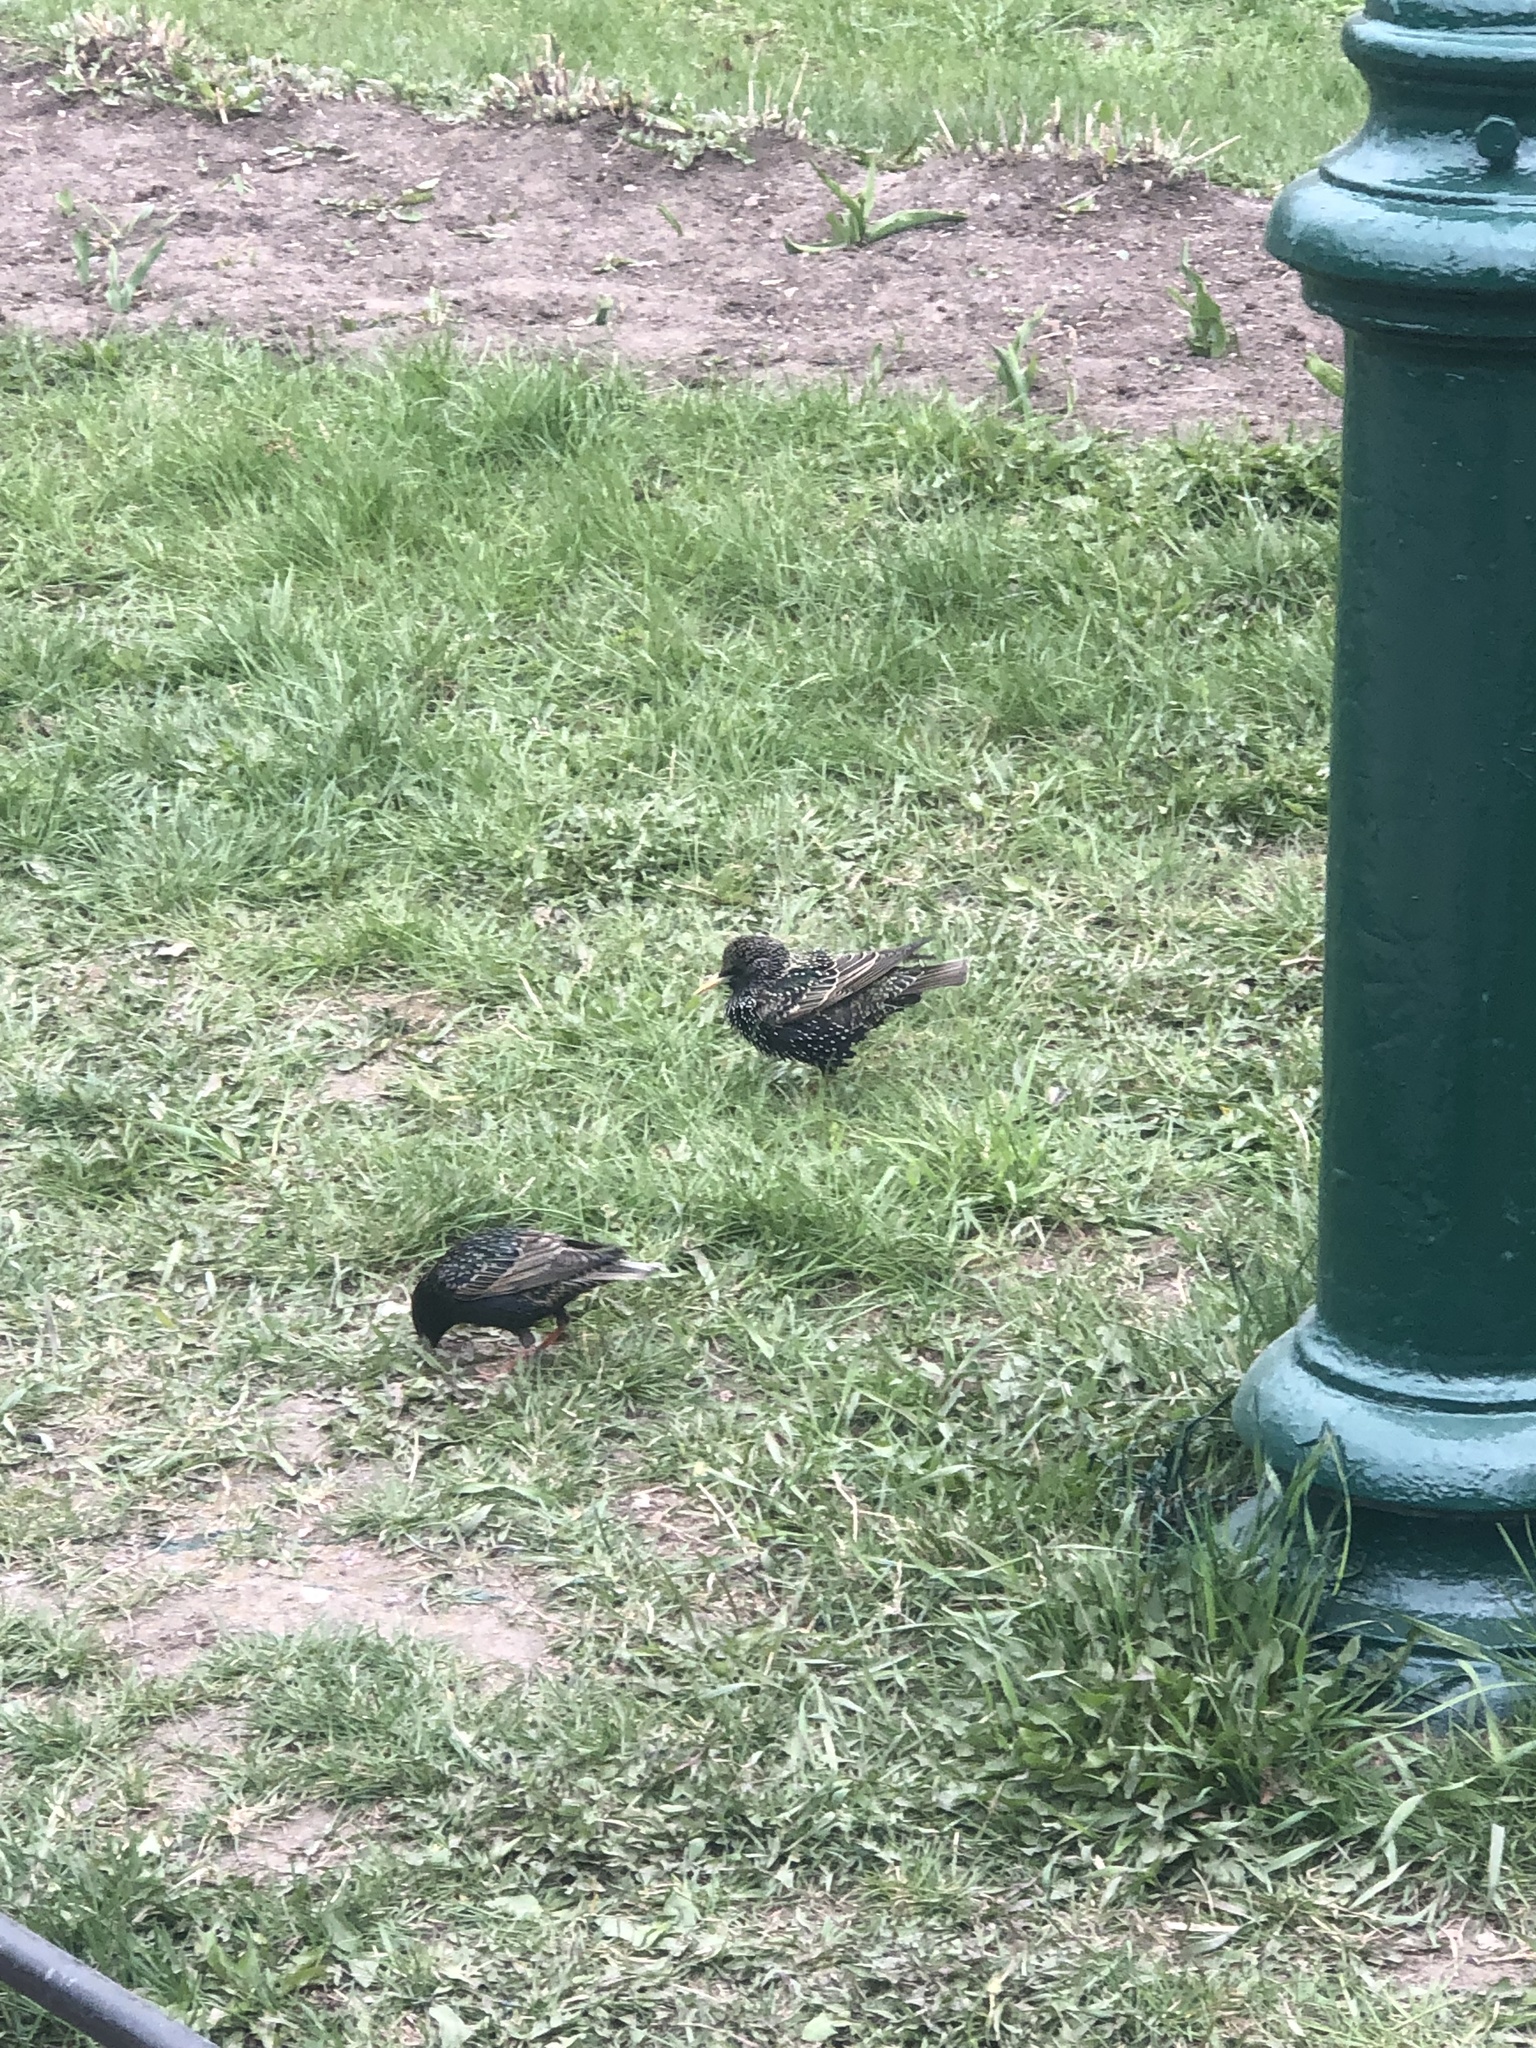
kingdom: Animalia
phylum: Chordata
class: Aves
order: Passeriformes
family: Sturnidae
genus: Sturnus
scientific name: Sturnus vulgaris
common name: Common starling
